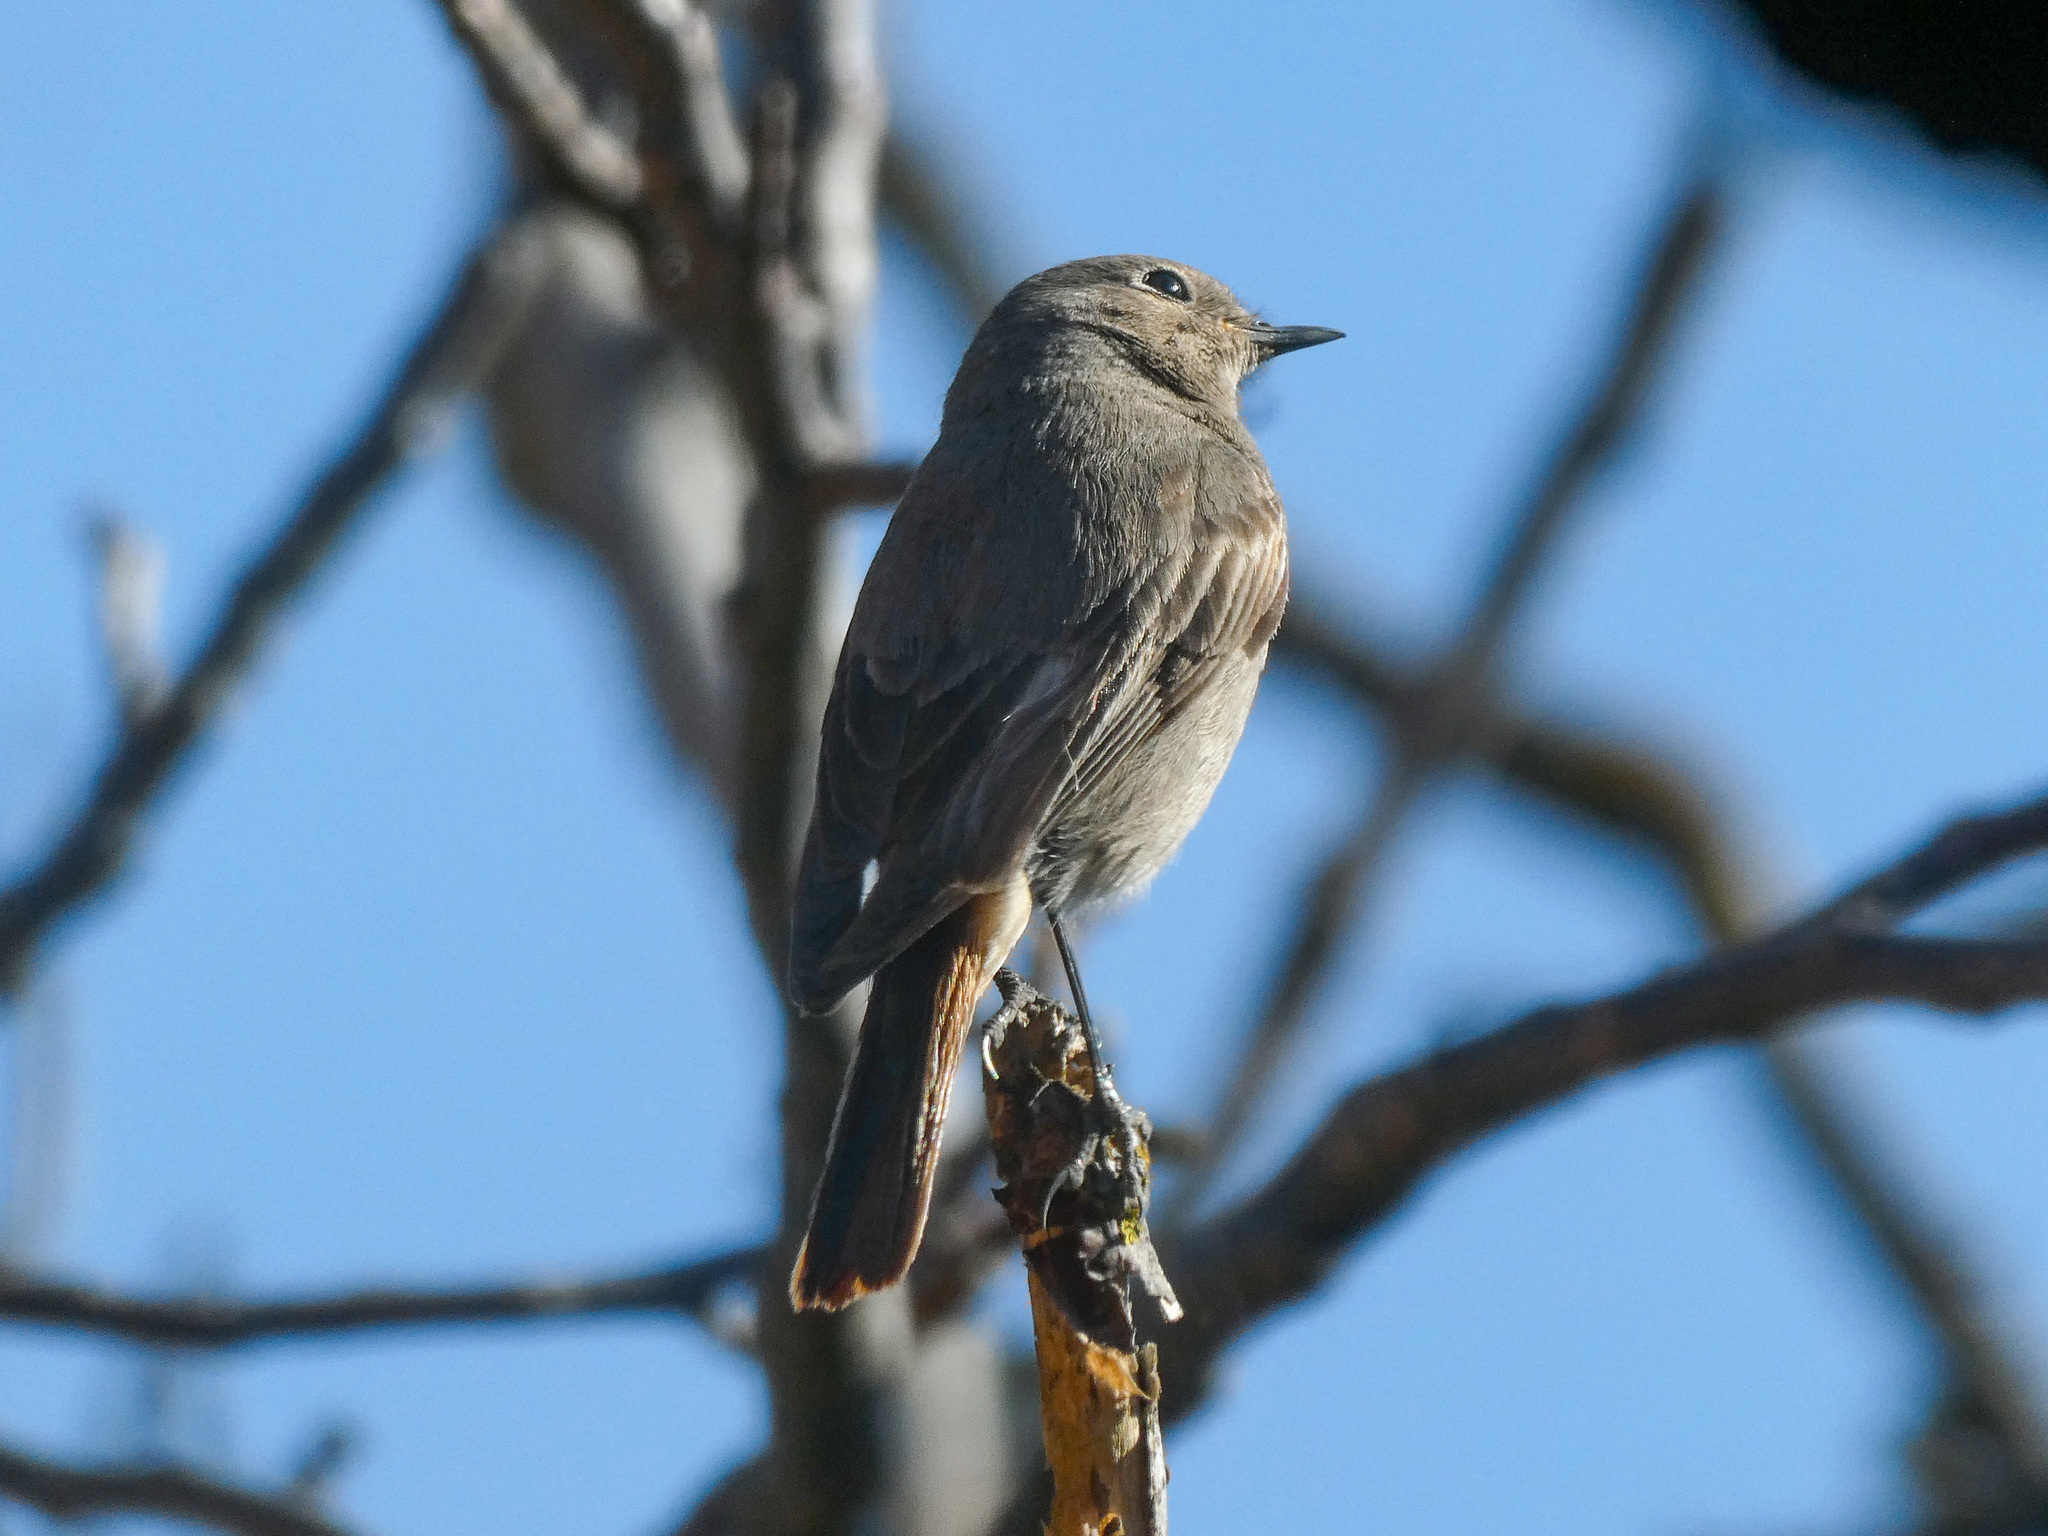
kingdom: Animalia
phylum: Chordata
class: Aves
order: Passeriformes
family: Muscicapidae
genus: Phoenicurus
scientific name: Phoenicurus ochruros
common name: Black redstart
